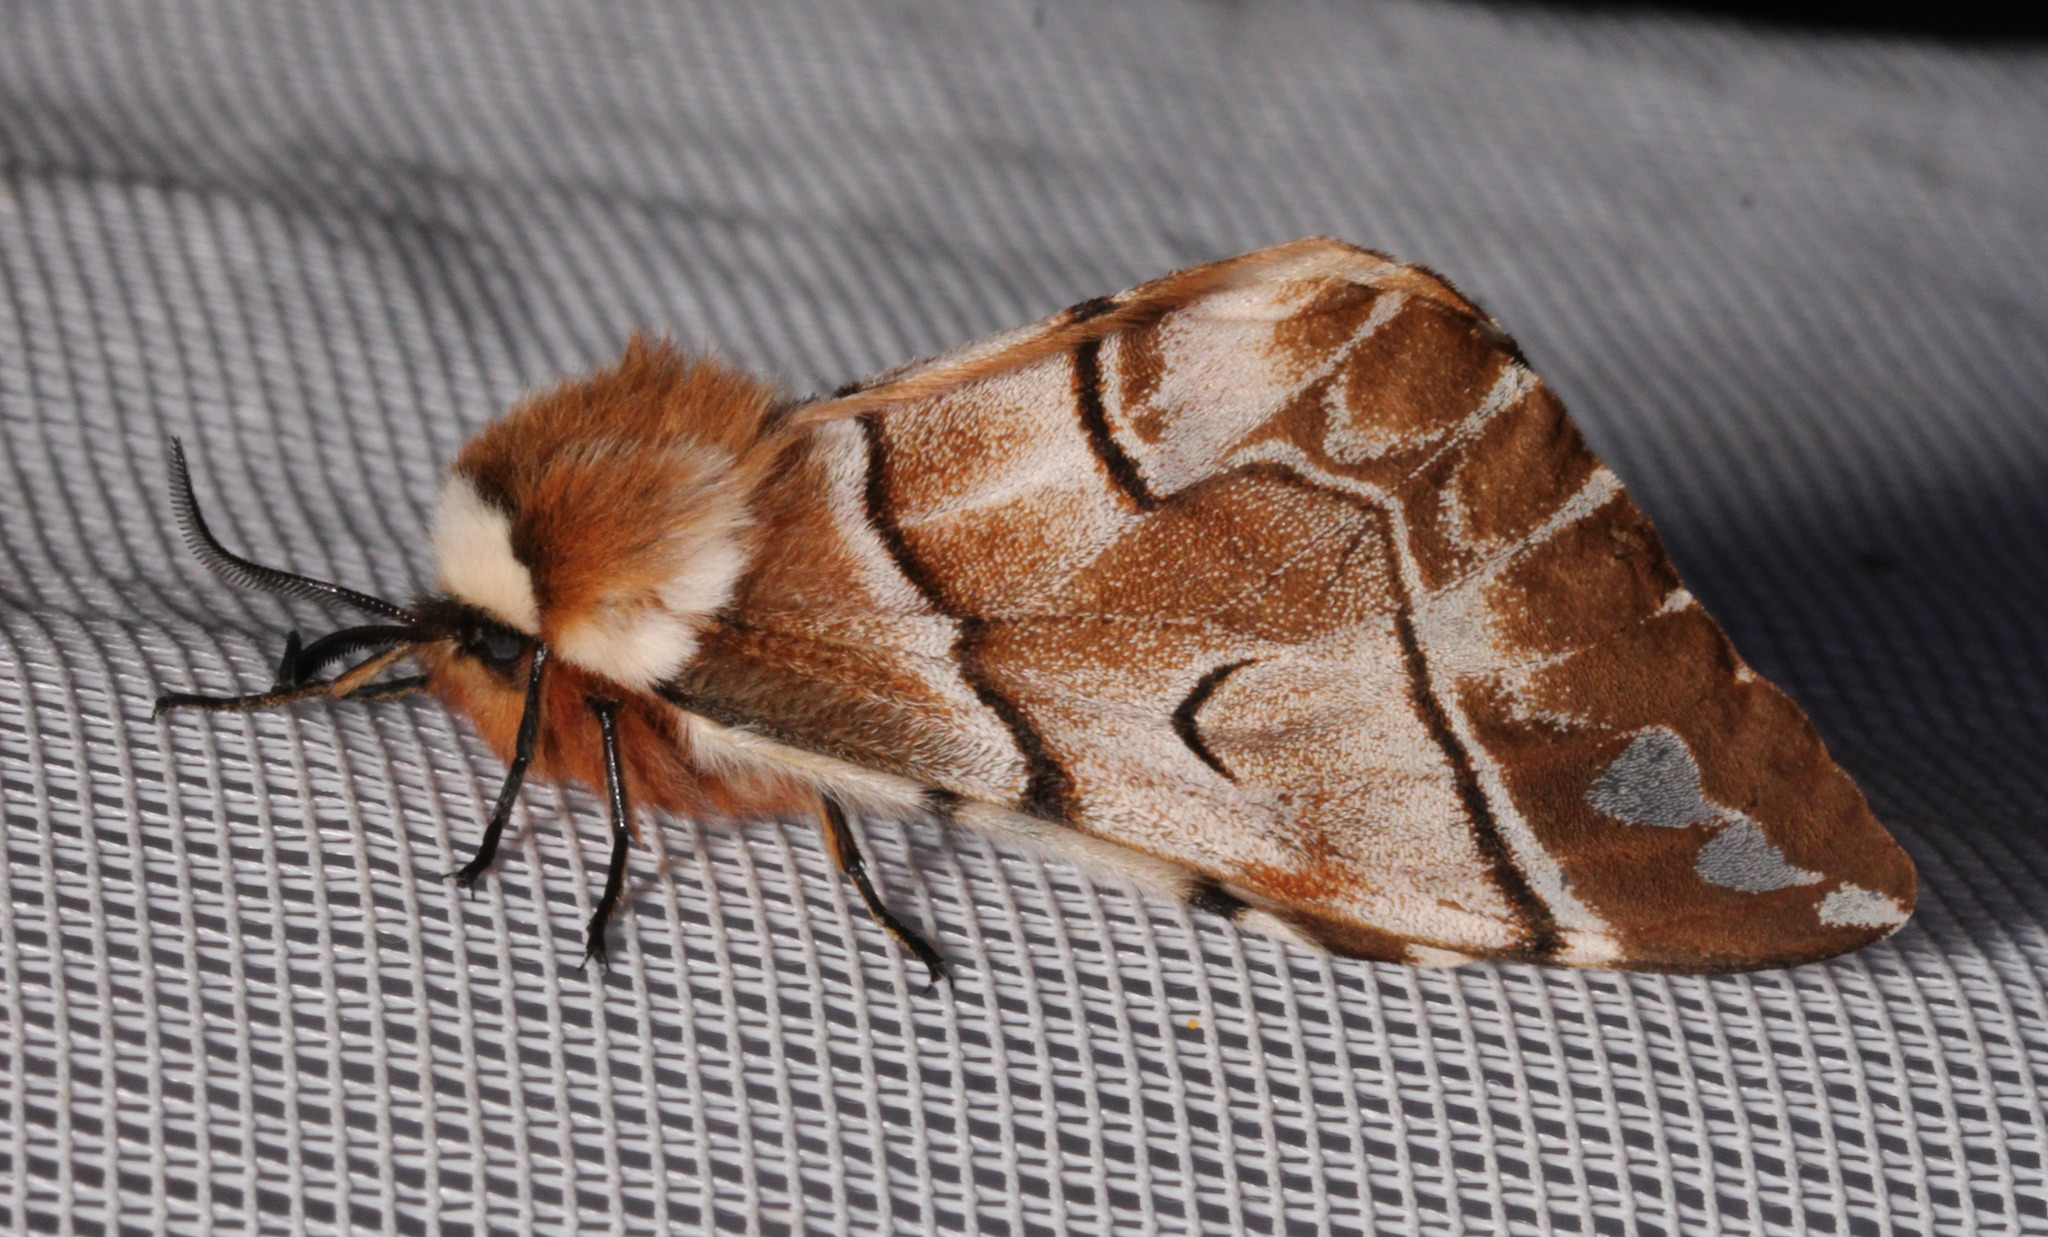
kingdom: Animalia
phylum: Arthropoda
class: Insecta
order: Lepidoptera
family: Endromidae
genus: Endromis
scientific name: Endromis versicolora
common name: Kentish glory
